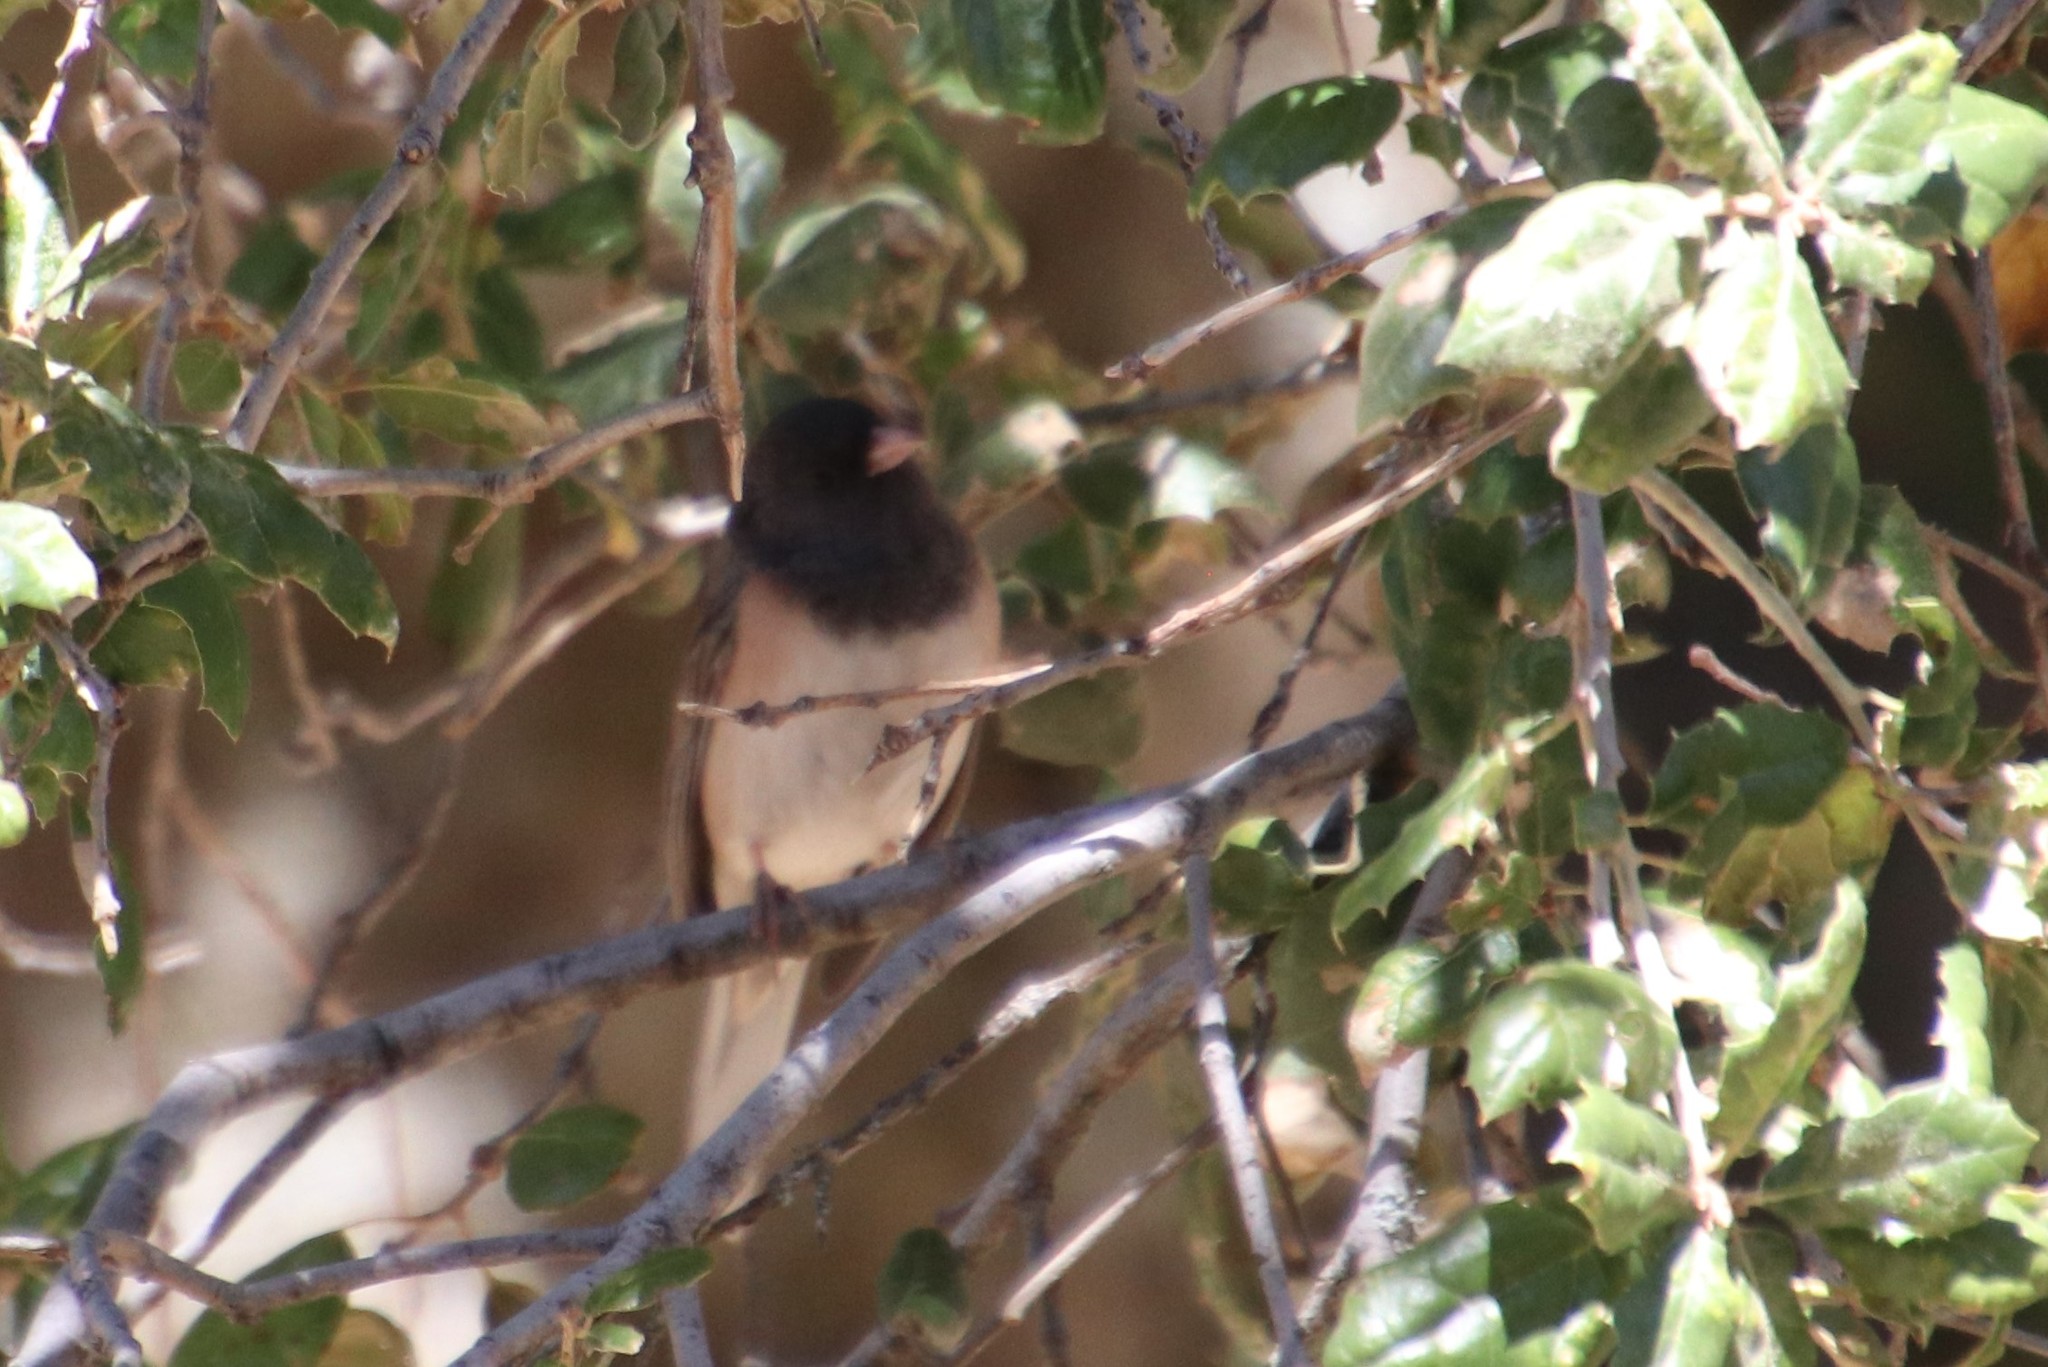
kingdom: Animalia
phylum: Chordata
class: Aves
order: Passeriformes
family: Passerellidae
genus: Junco
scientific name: Junco hyemalis
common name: Dark-eyed junco
